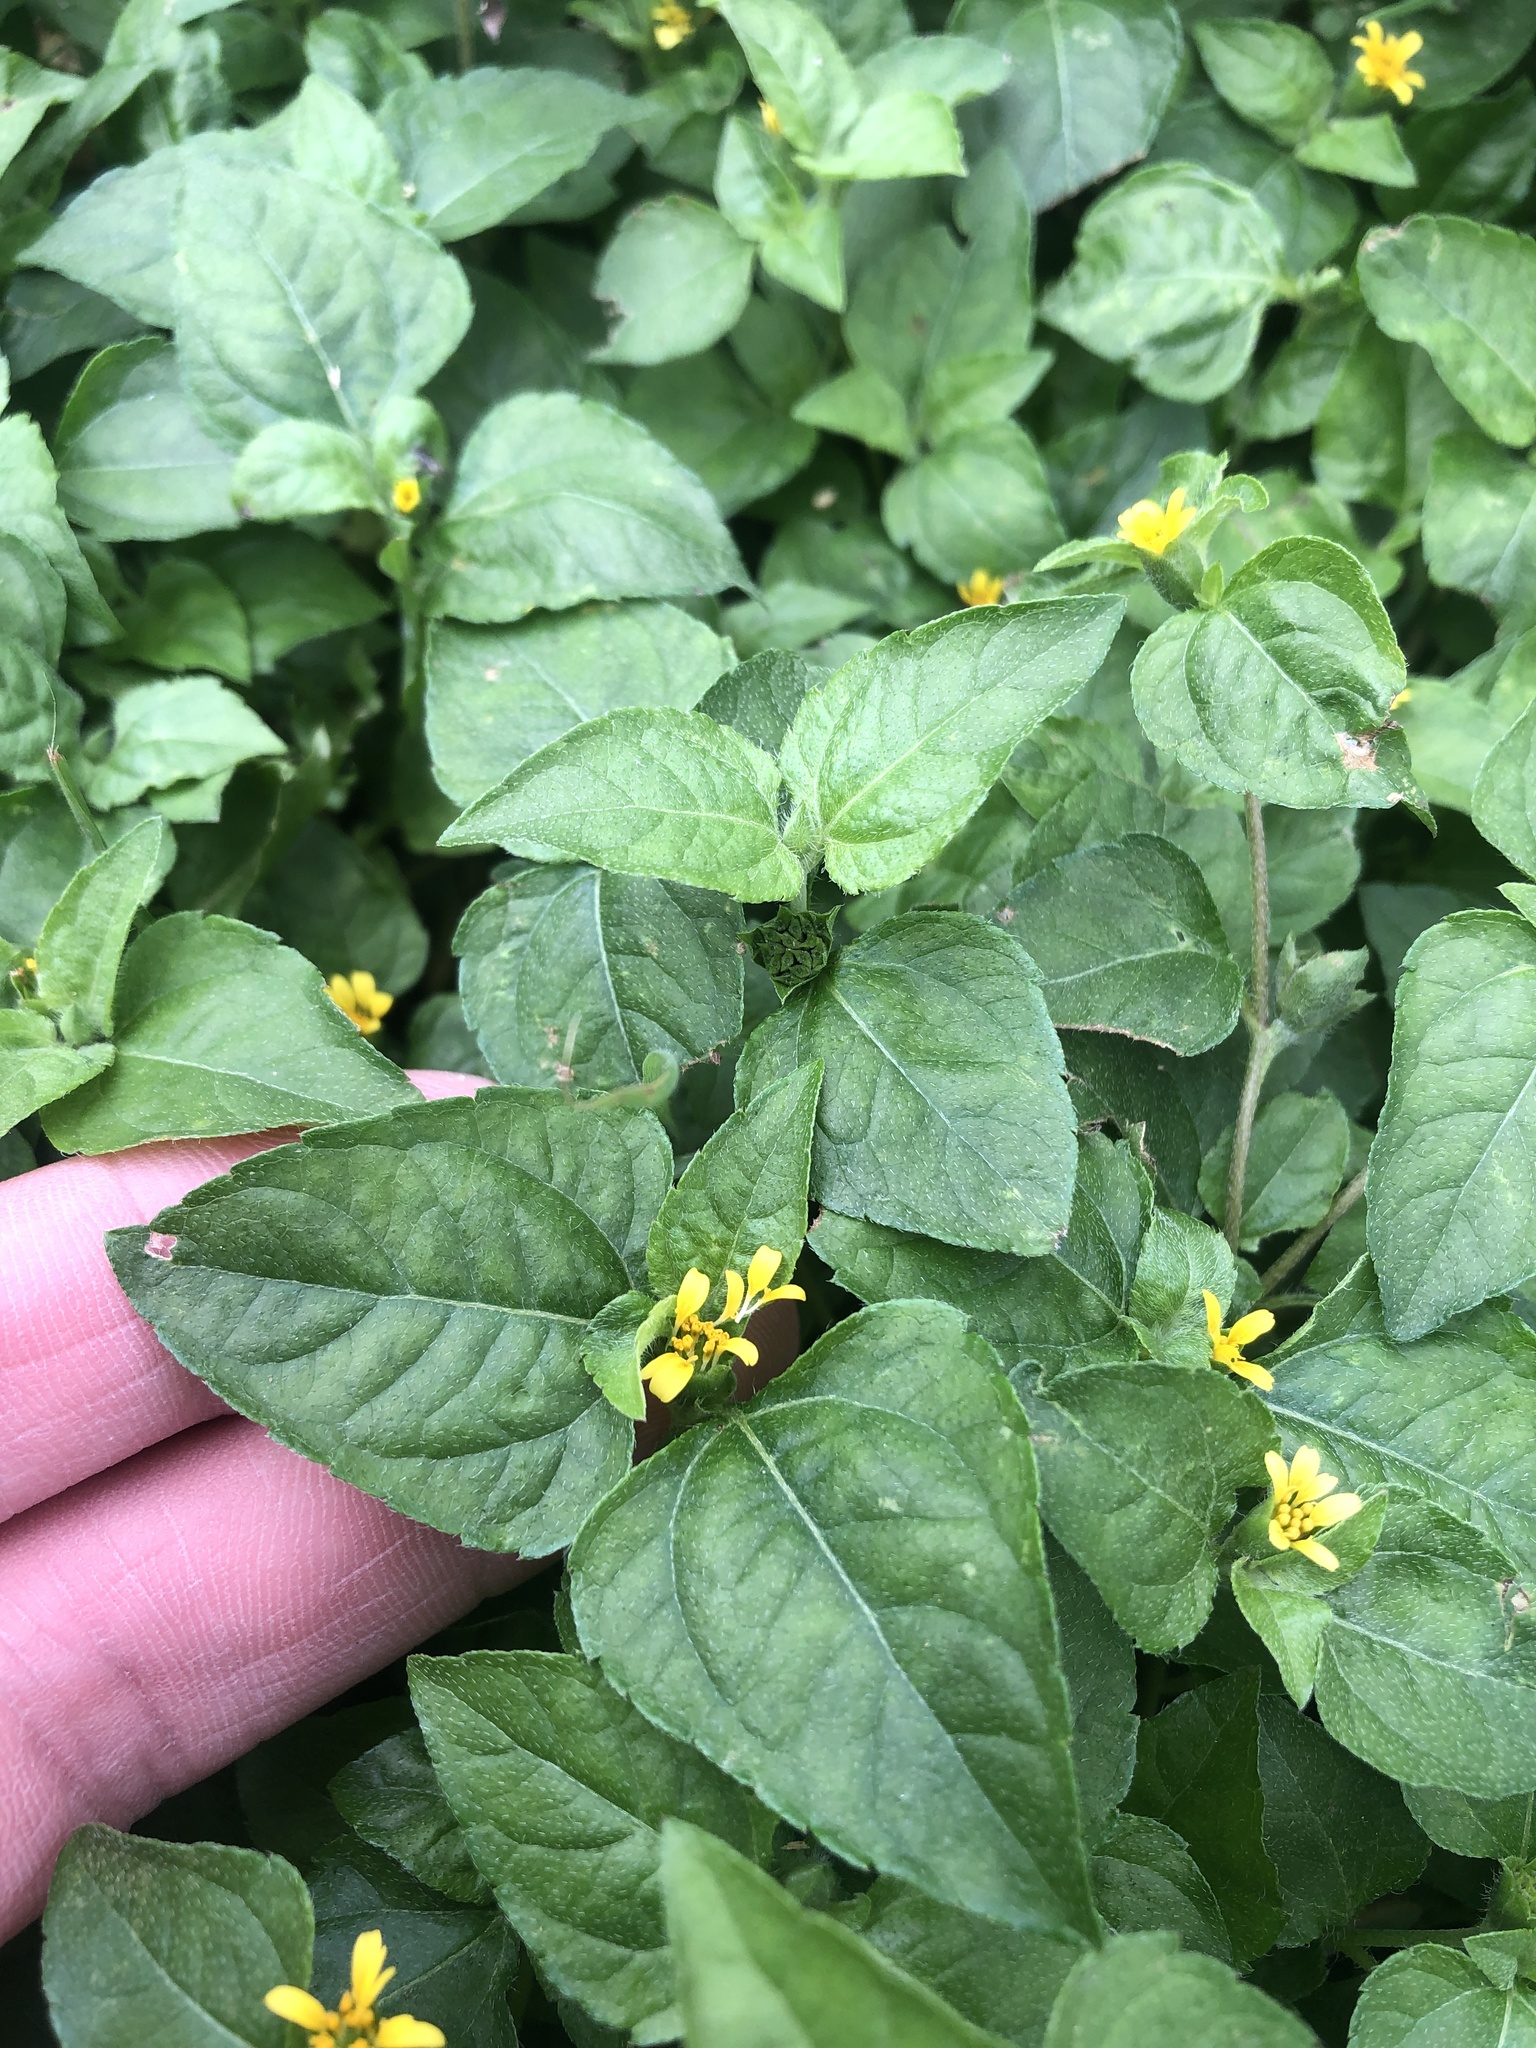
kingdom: Plantae
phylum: Tracheophyta
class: Magnoliopsida
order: Asterales
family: Asteraceae
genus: Calyptocarpus
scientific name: Calyptocarpus vialis
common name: Straggler daisy
